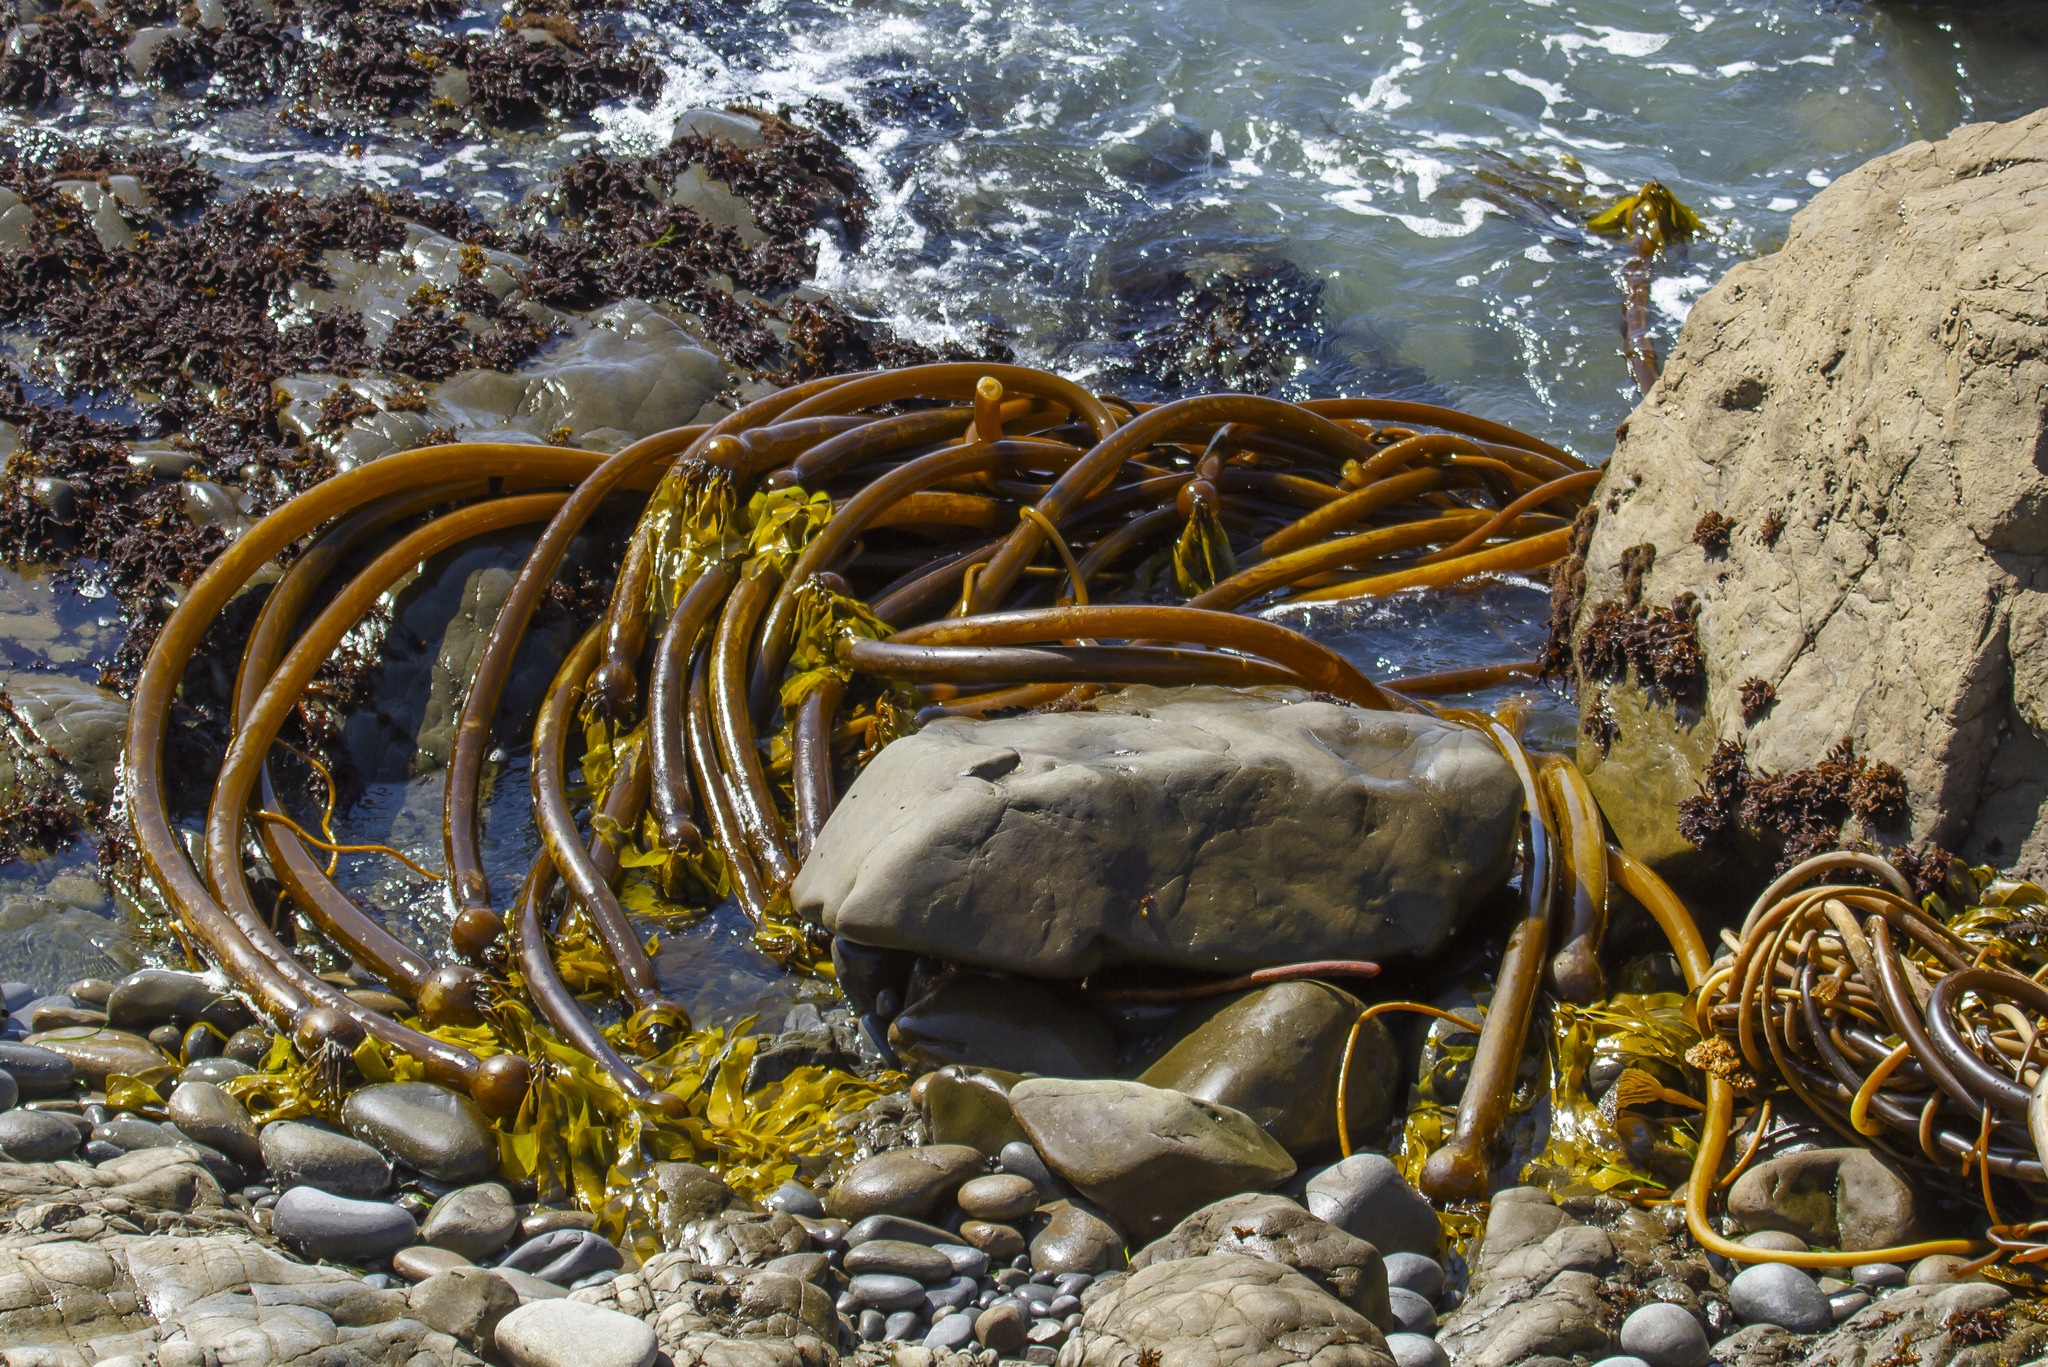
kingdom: Chromista
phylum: Ochrophyta
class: Phaeophyceae
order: Laminariales
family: Laminariaceae
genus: Nereocystis
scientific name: Nereocystis luetkeana
